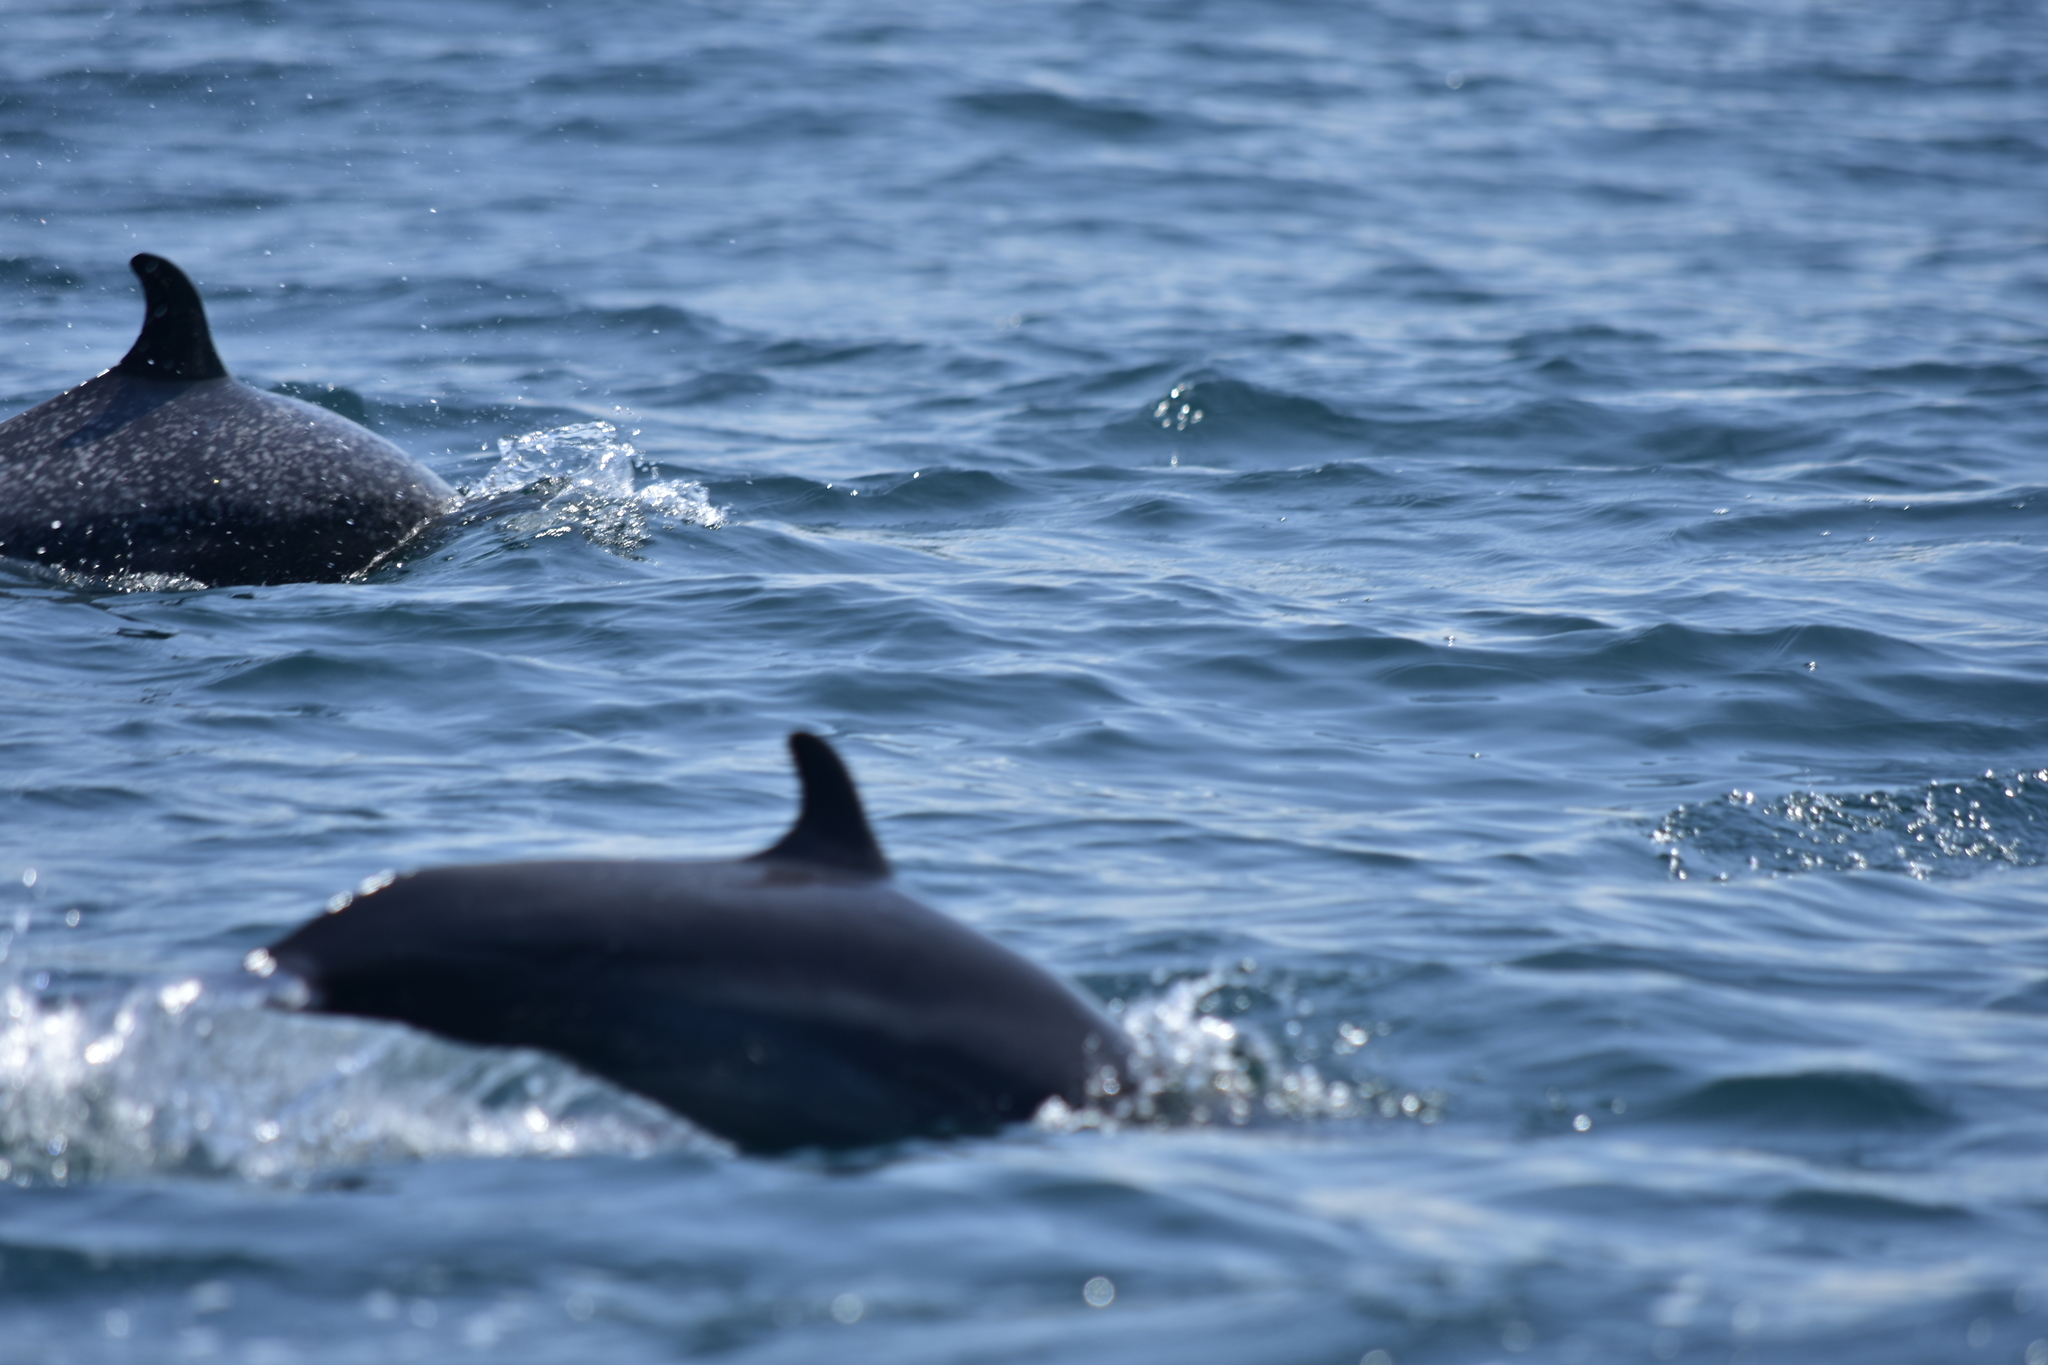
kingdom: Animalia
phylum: Chordata
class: Mammalia
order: Cetacea
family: Delphinidae
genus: Stenella
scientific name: Stenella attenuata
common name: Pantropical spotted dolphin
